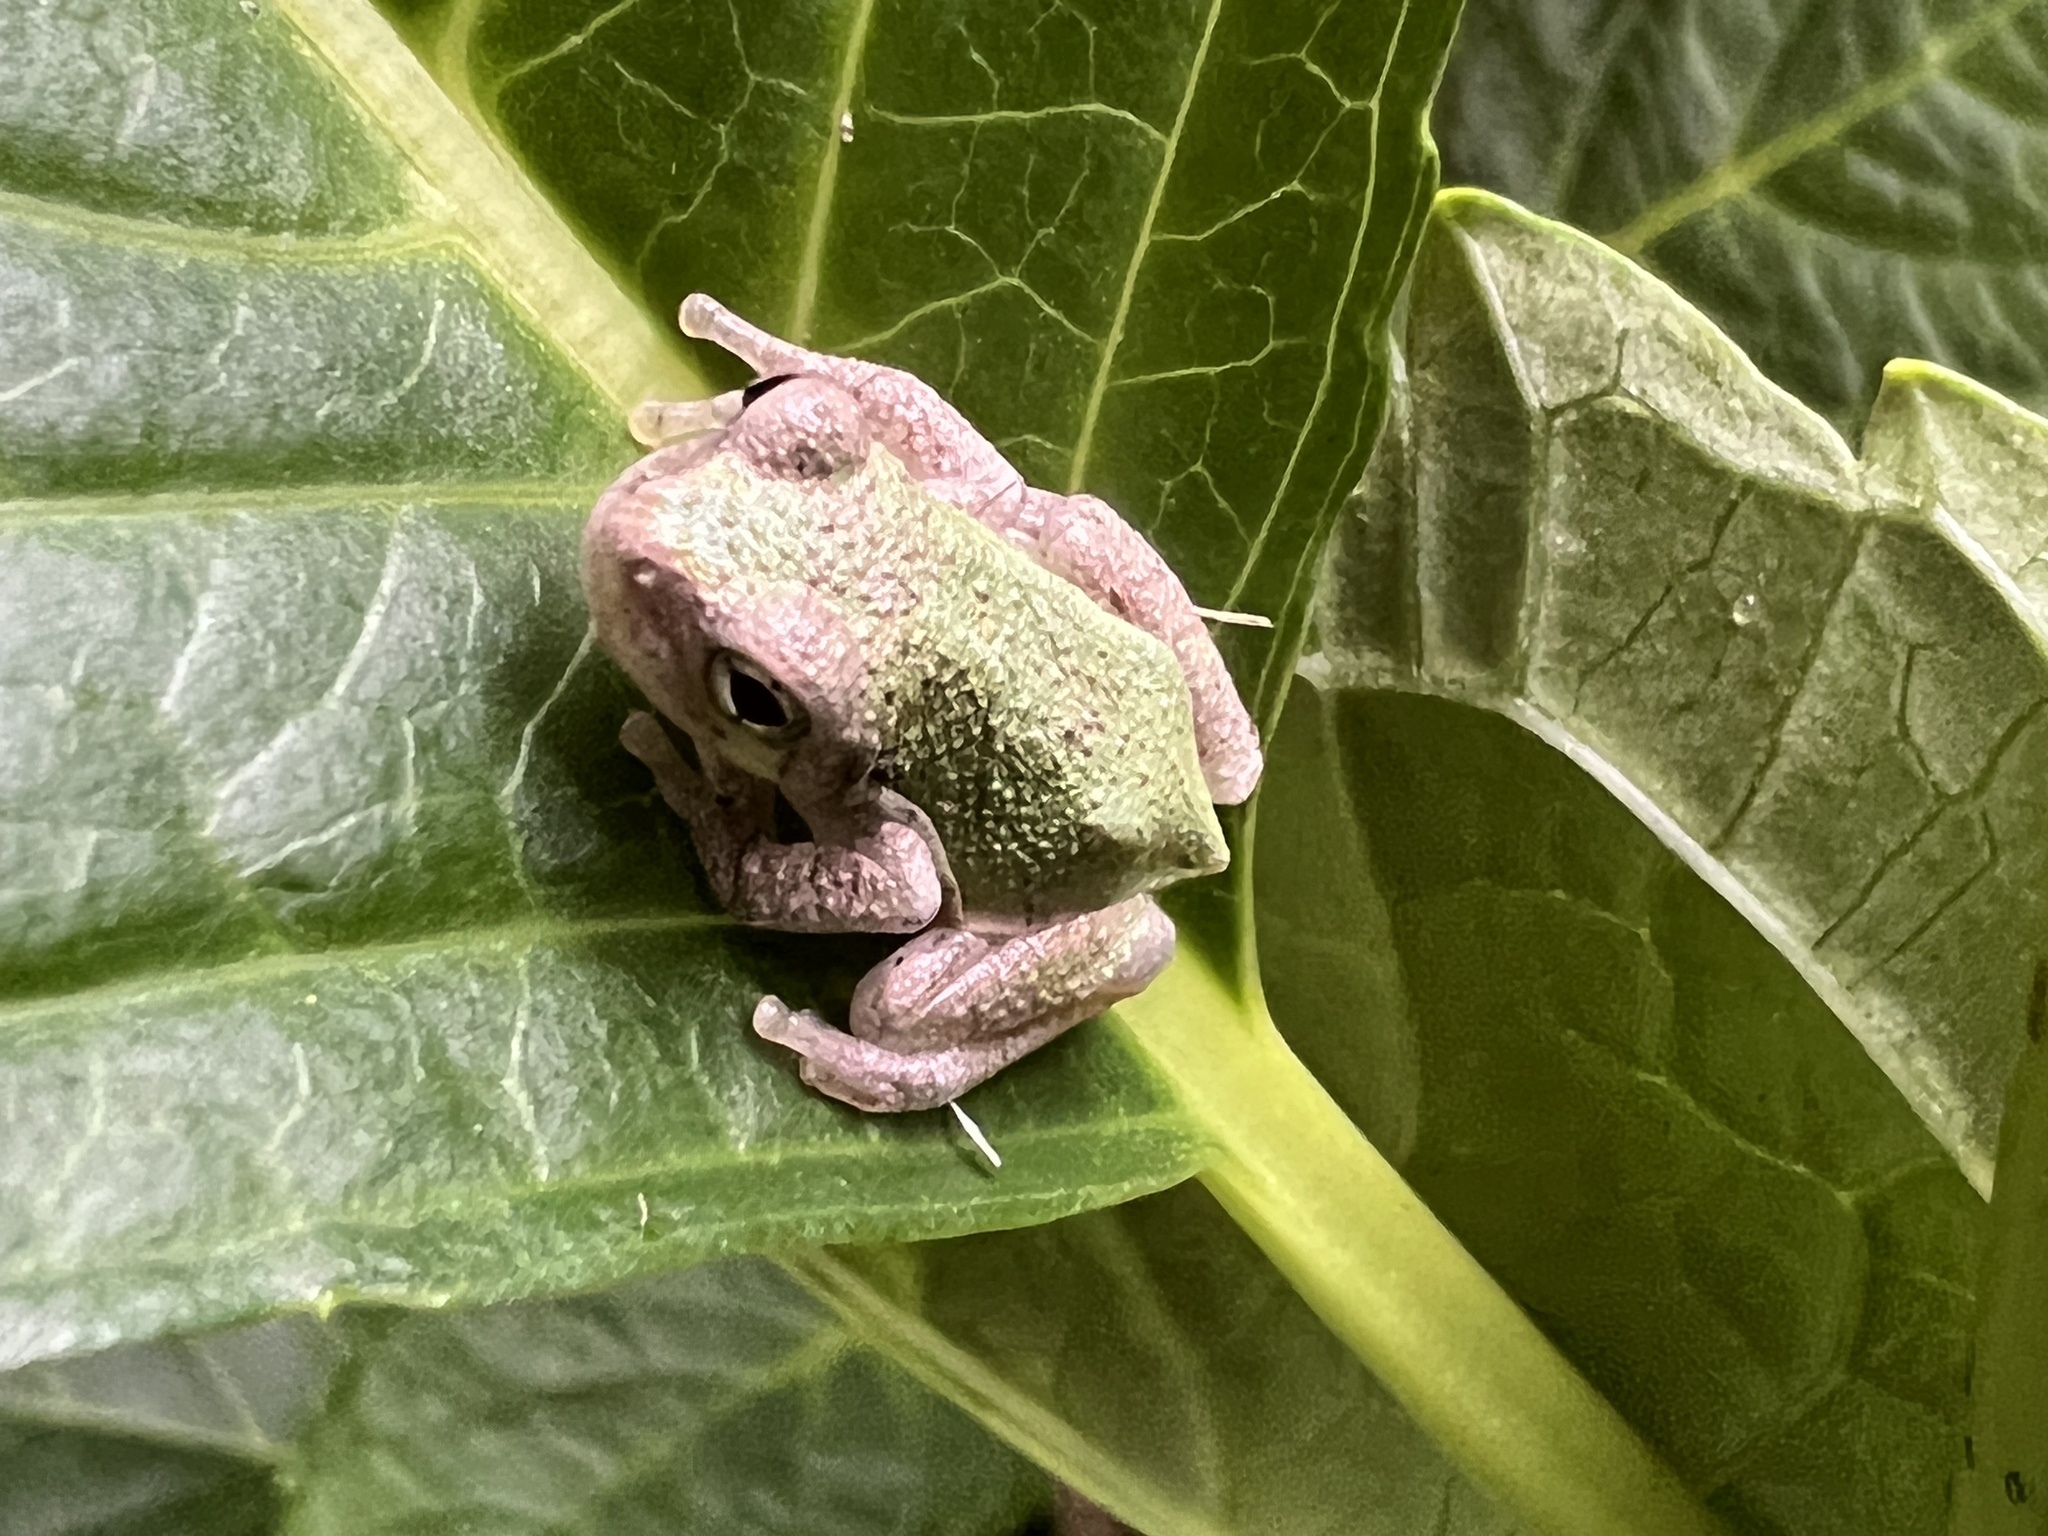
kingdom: Animalia
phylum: Chordata
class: Amphibia
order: Anura
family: Hylidae
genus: Hyla
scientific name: Hyla
